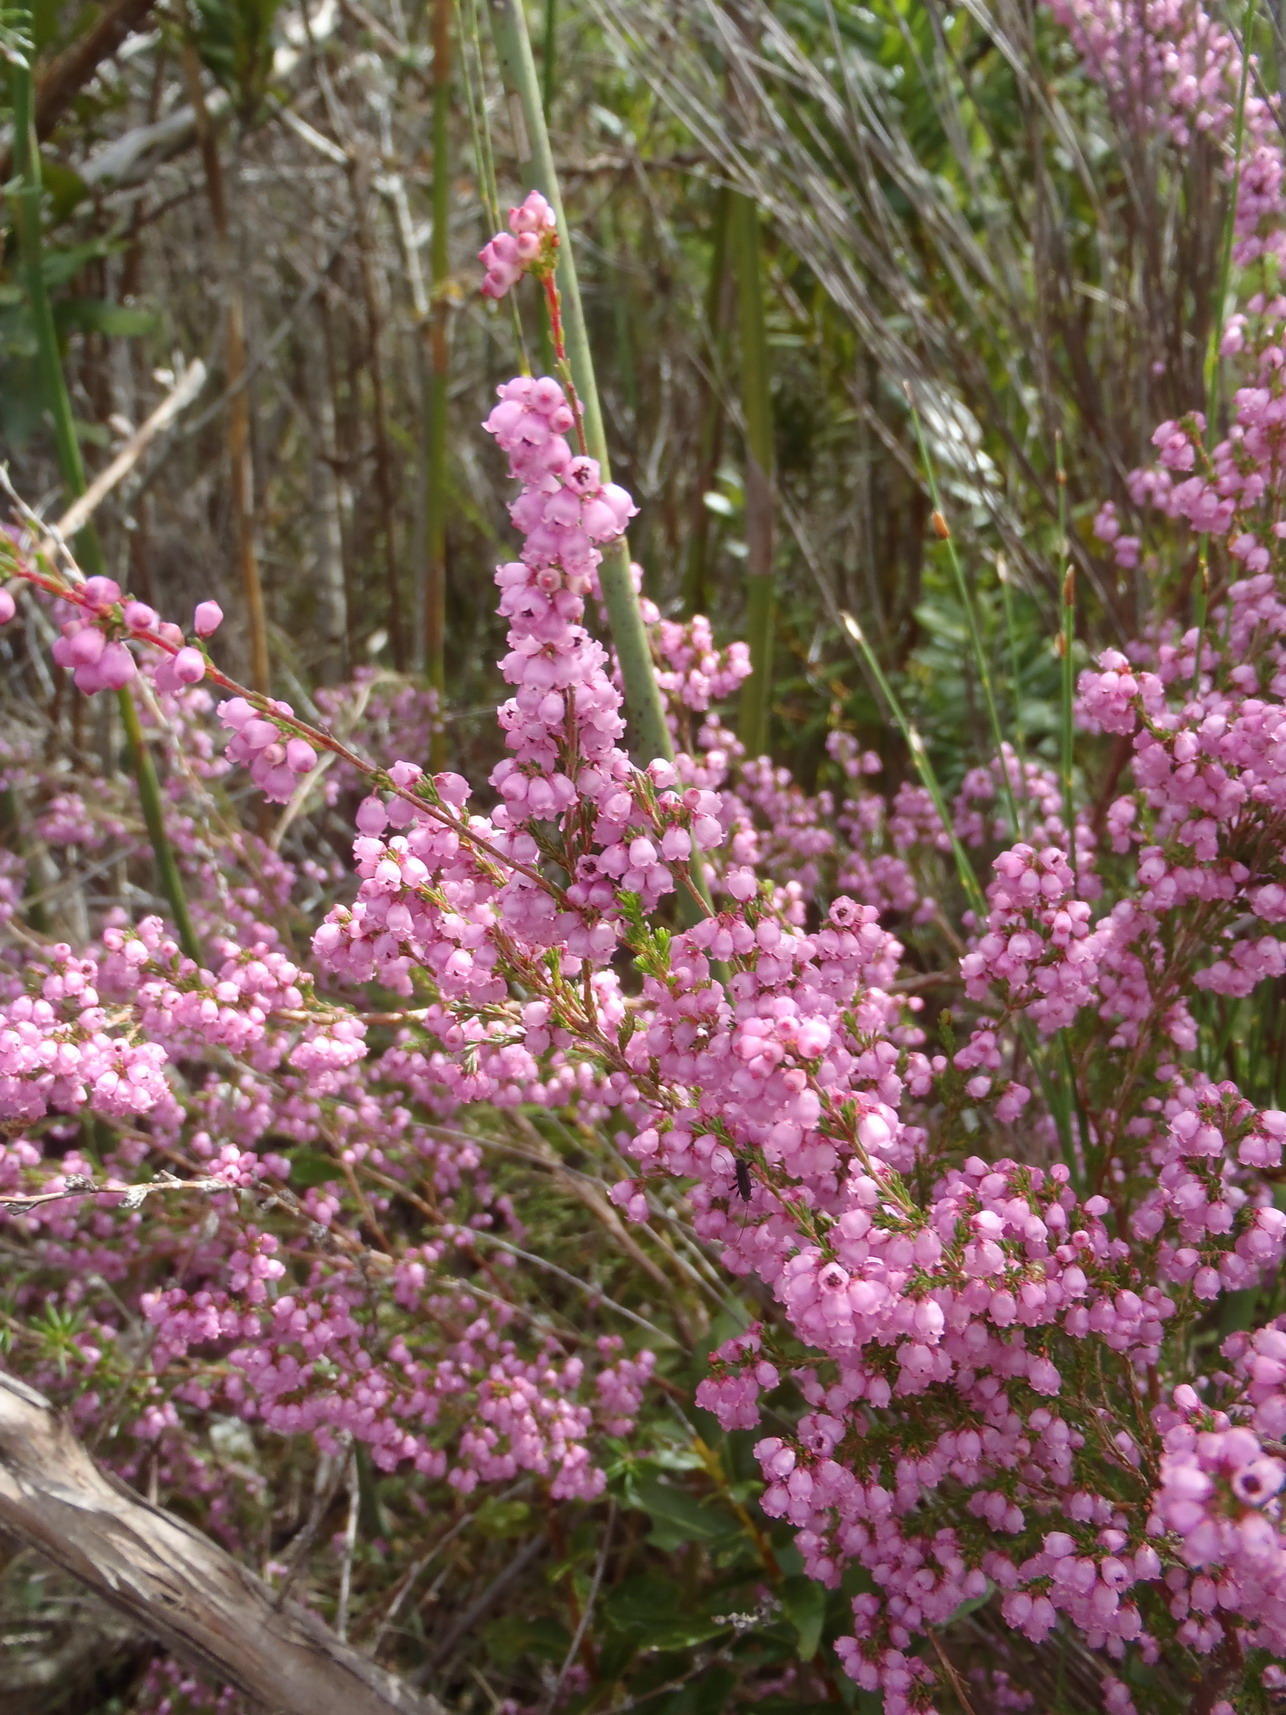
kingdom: Plantae
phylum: Tracheophyta
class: Magnoliopsida
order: Ericales
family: Ericaceae
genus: Erica
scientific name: Erica gracilis
